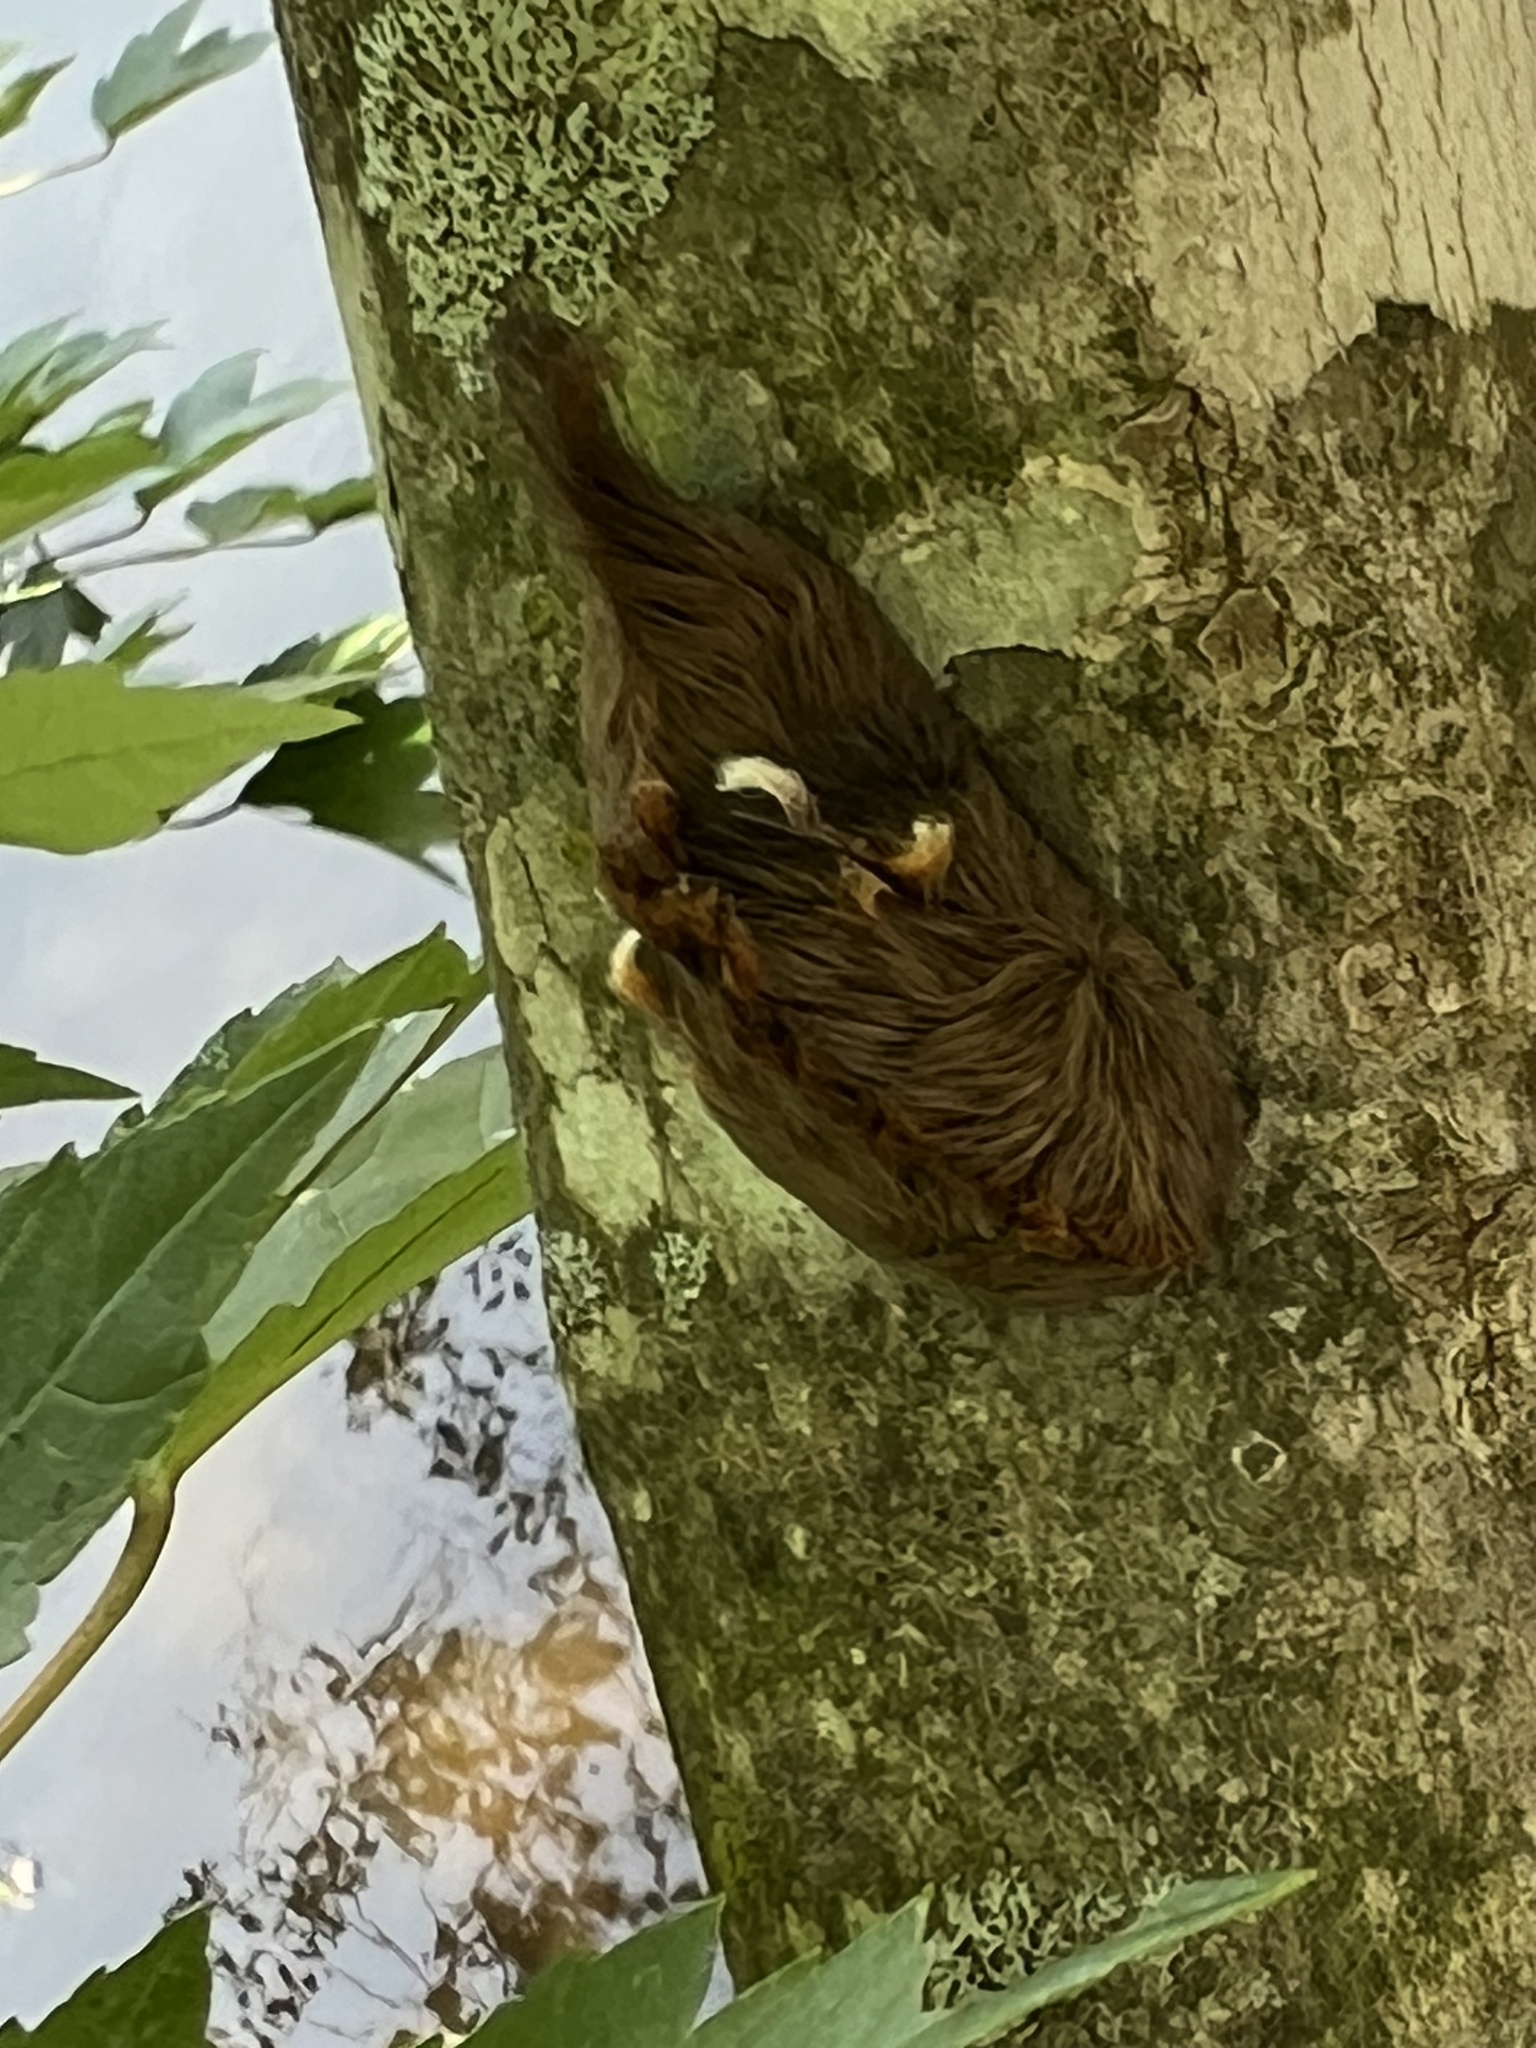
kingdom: Animalia
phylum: Arthropoda
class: Insecta
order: Lepidoptera
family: Megalopygidae
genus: Megalopyge
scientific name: Megalopyge opercularis
